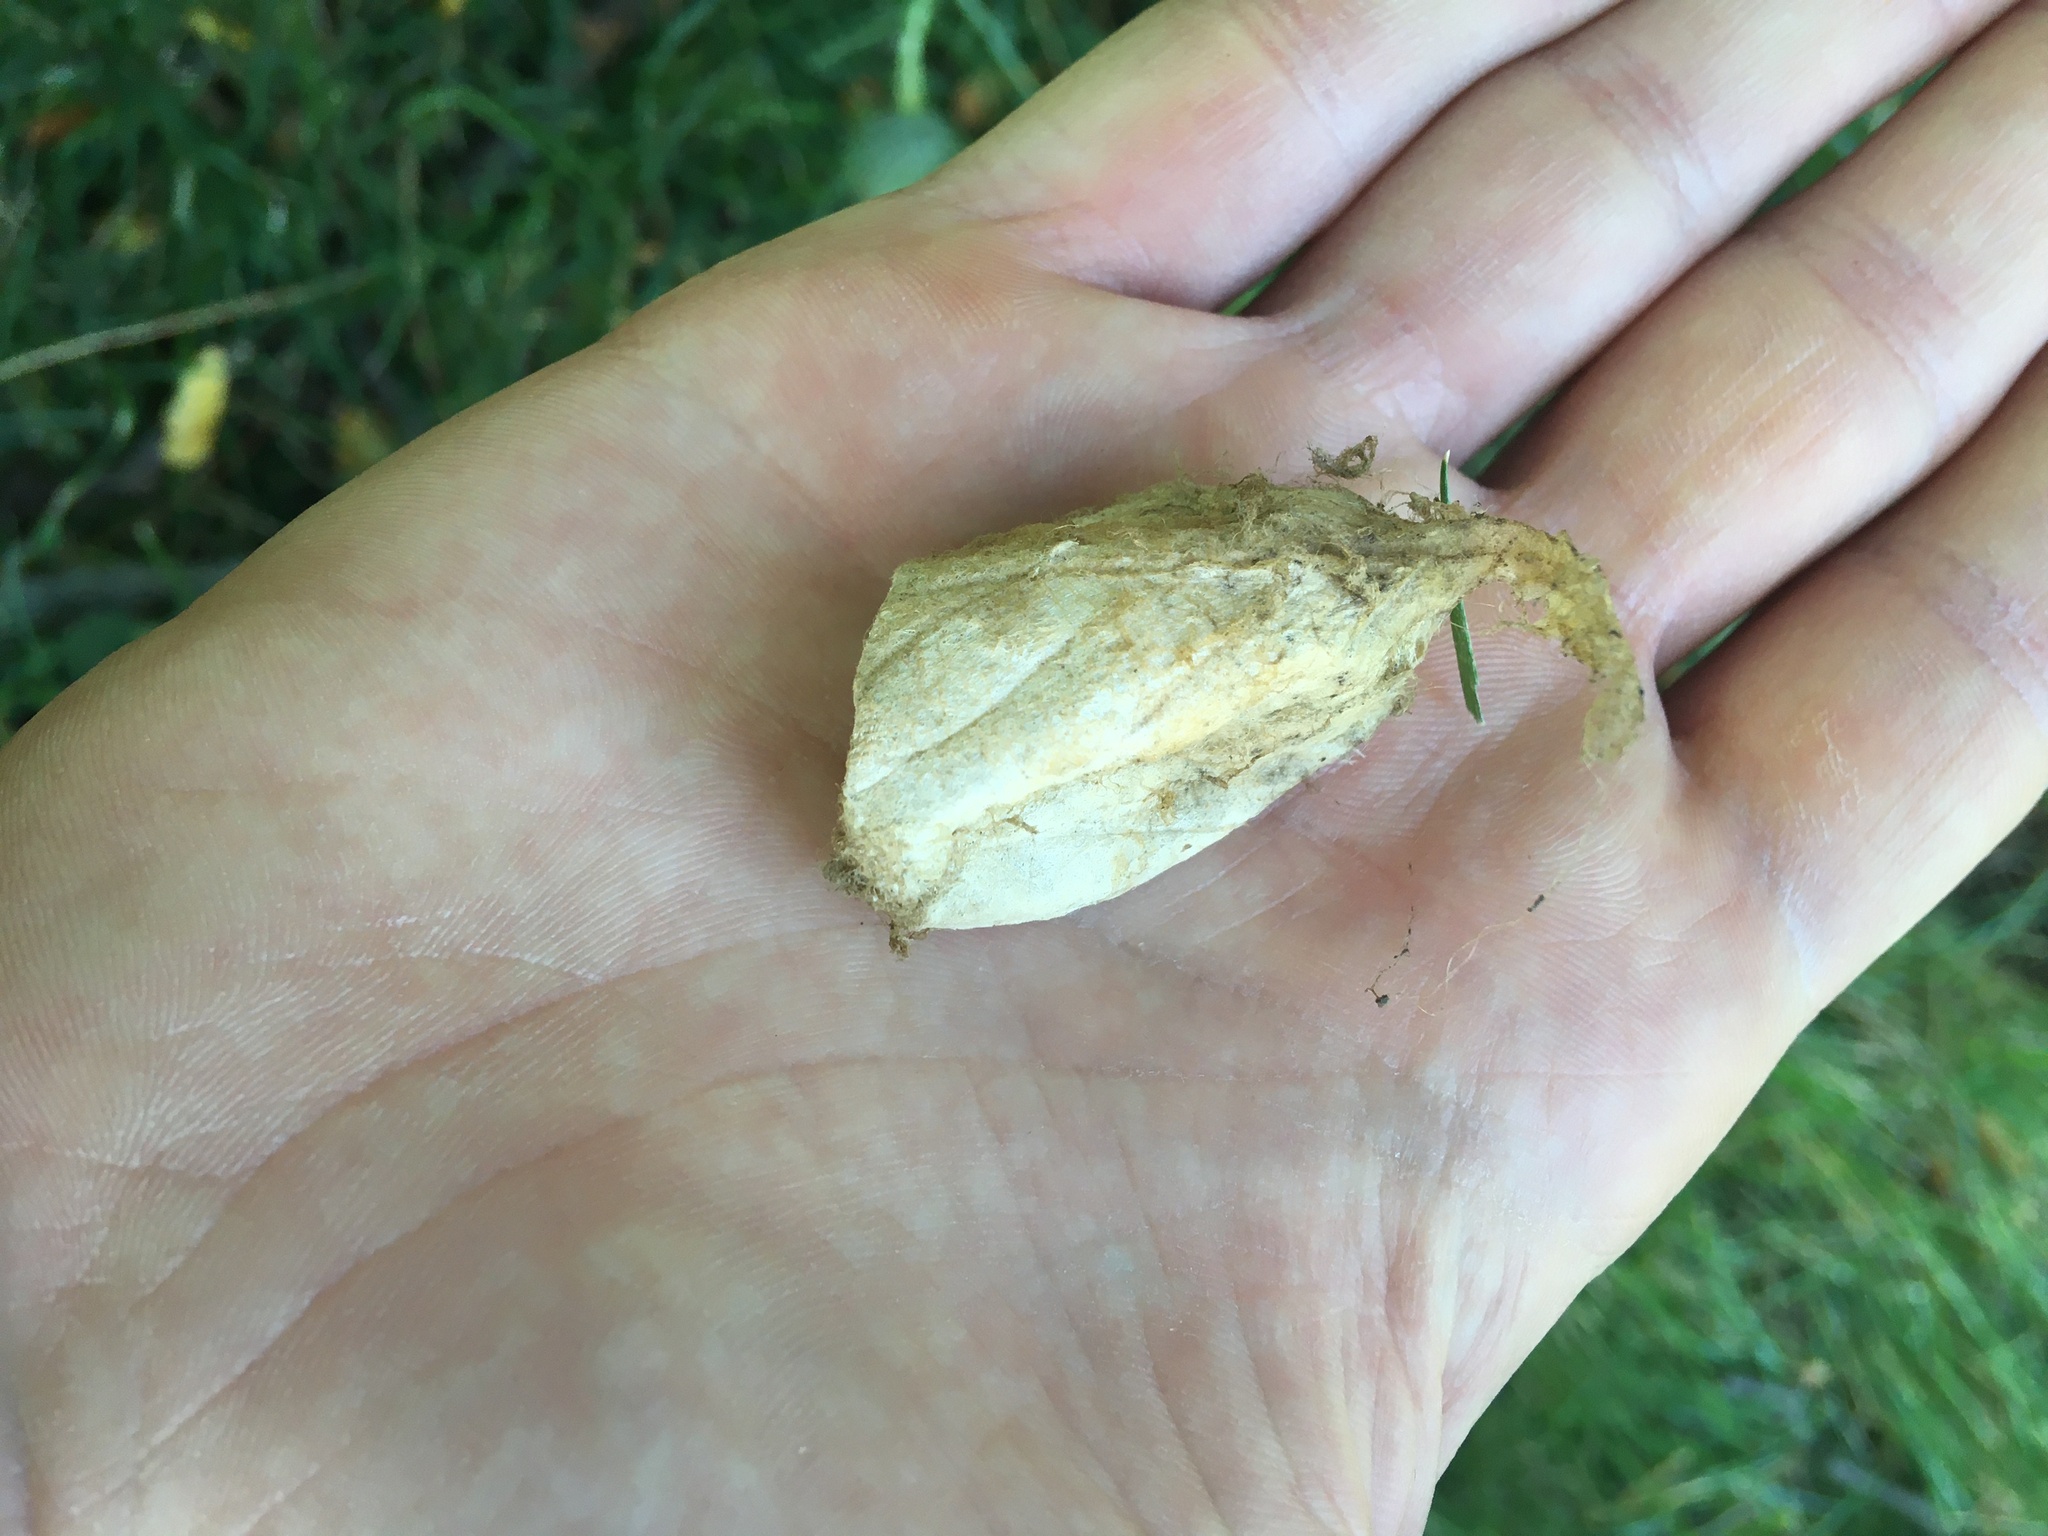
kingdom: Animalia
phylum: Arthropoda
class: Insecta
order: Lepidoptera
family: Saturniidae
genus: Antheraea
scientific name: Antheraea polyphemus
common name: Polyphemus moth
